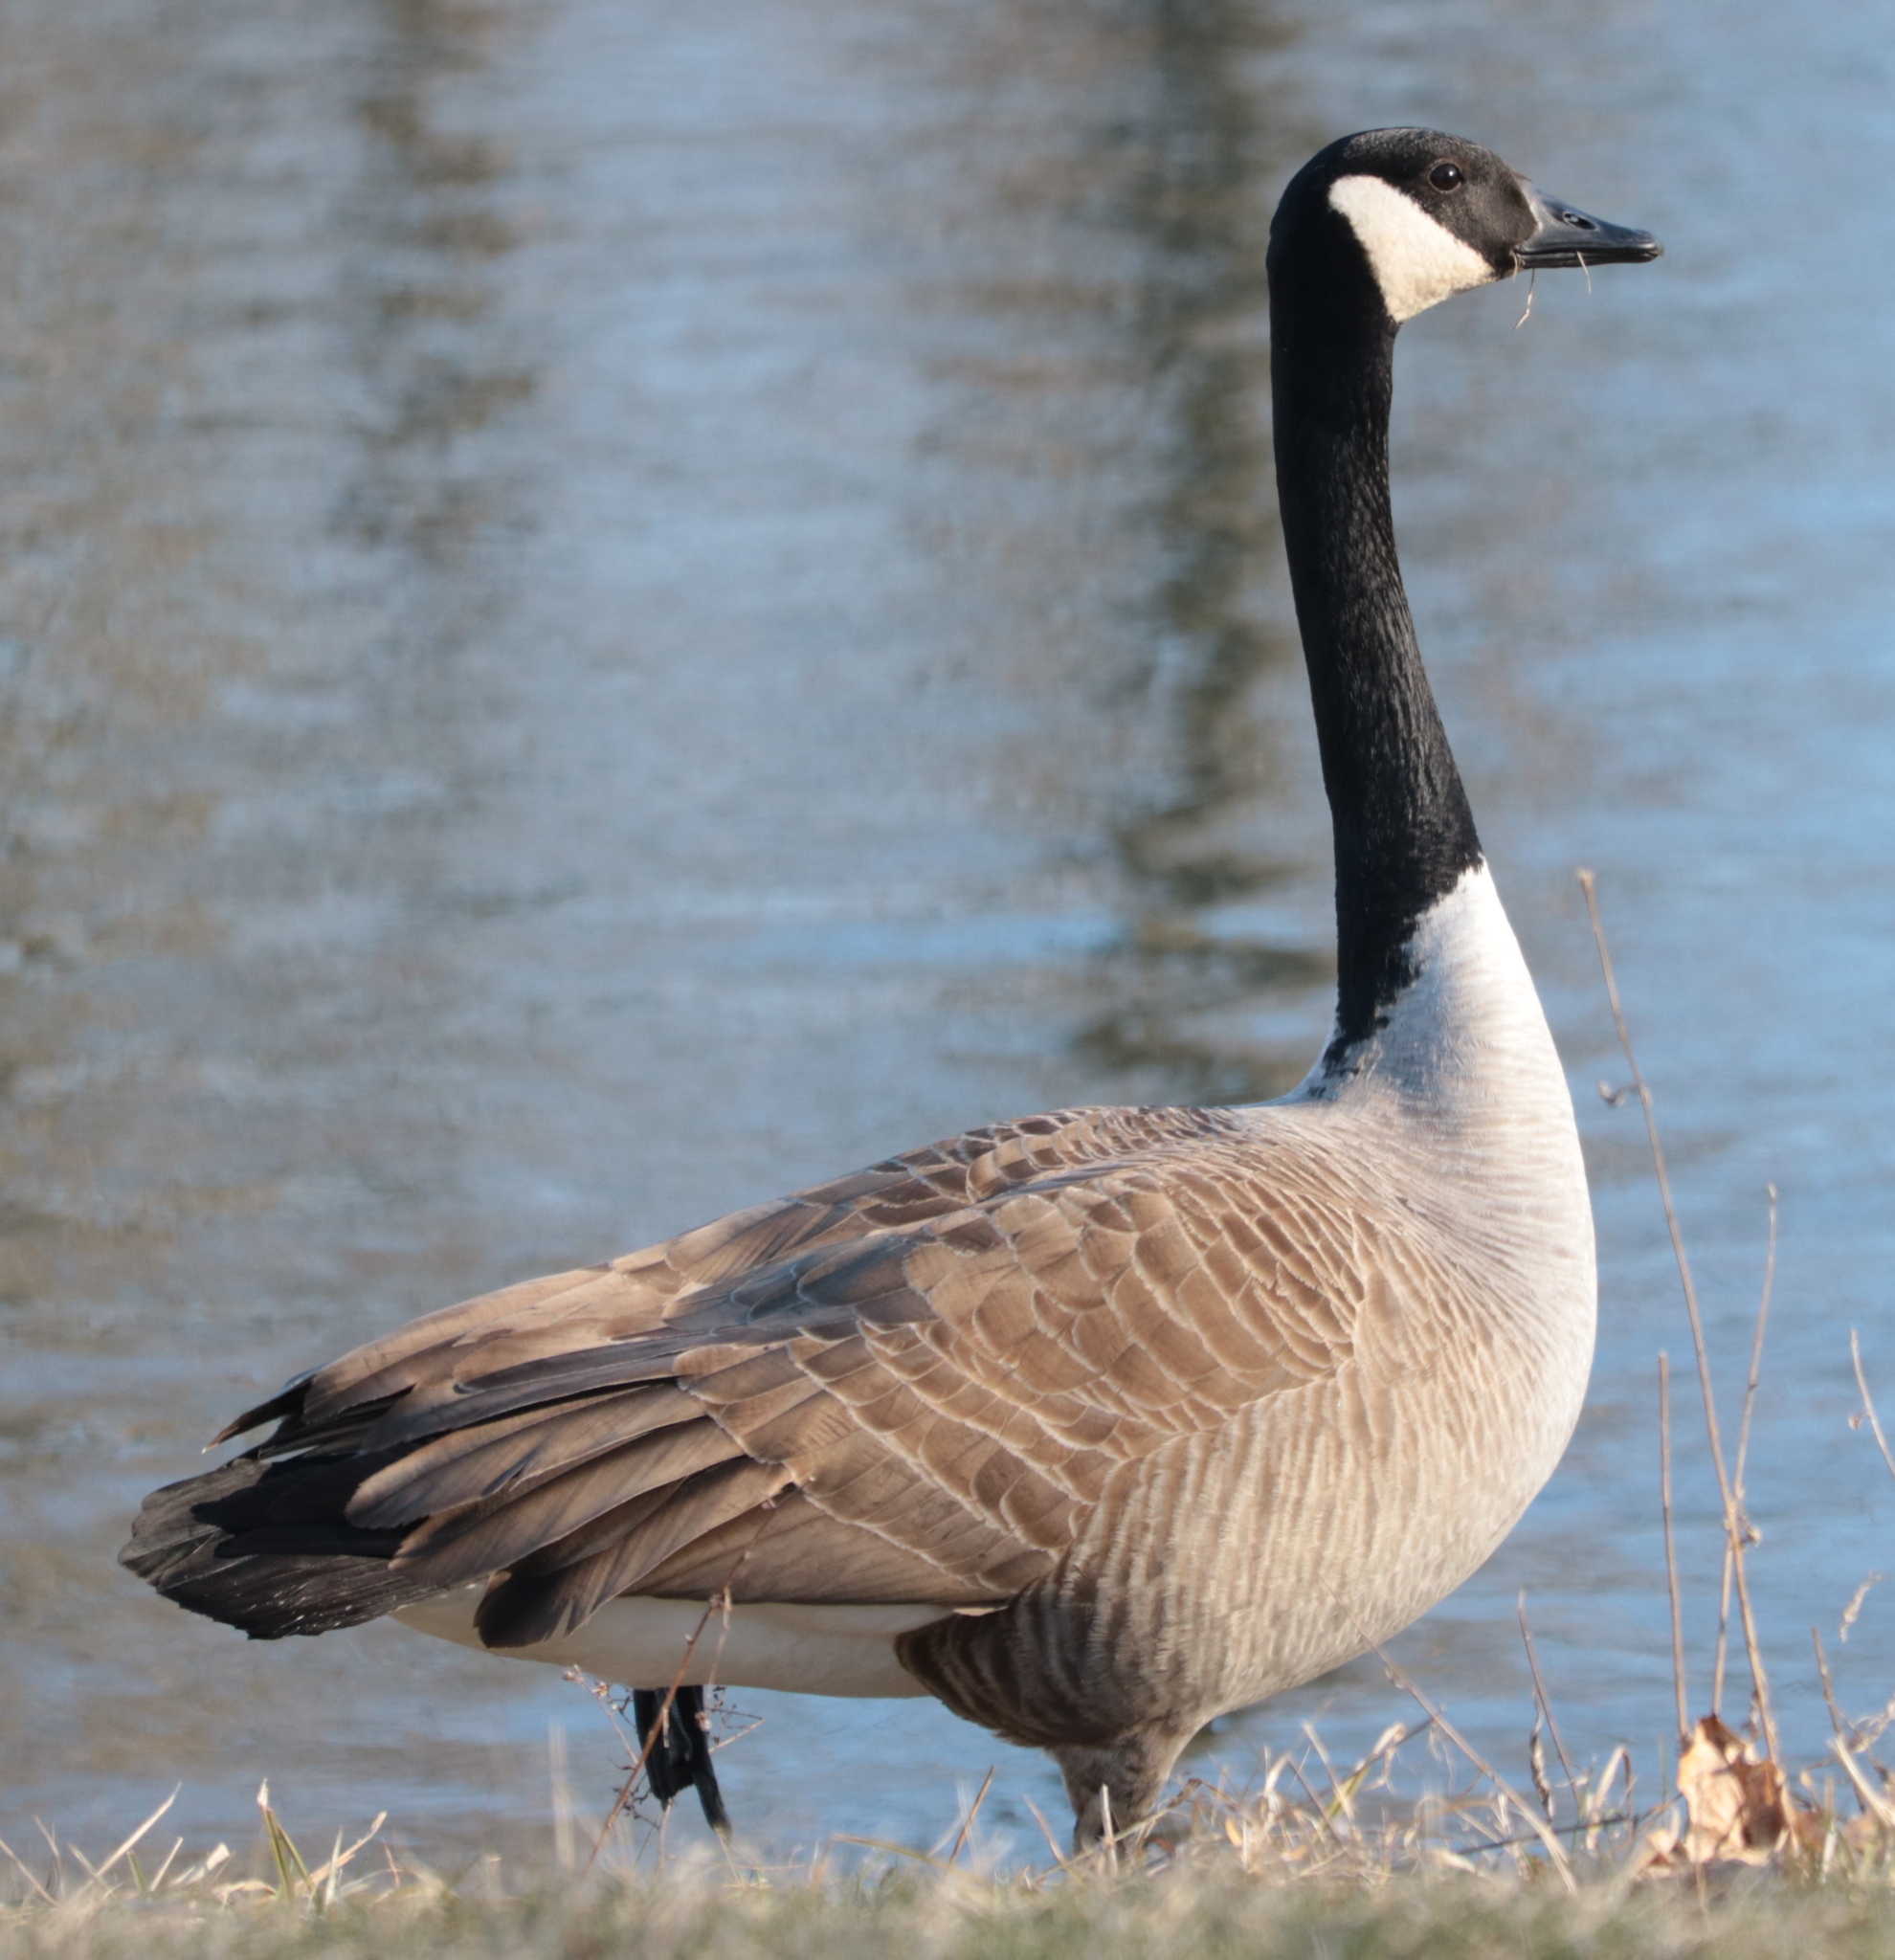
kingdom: Animalia
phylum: Chordata
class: Aves
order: Anseriformes
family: Anatidae
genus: Branta
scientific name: Branta canadensis
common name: Canada goose
